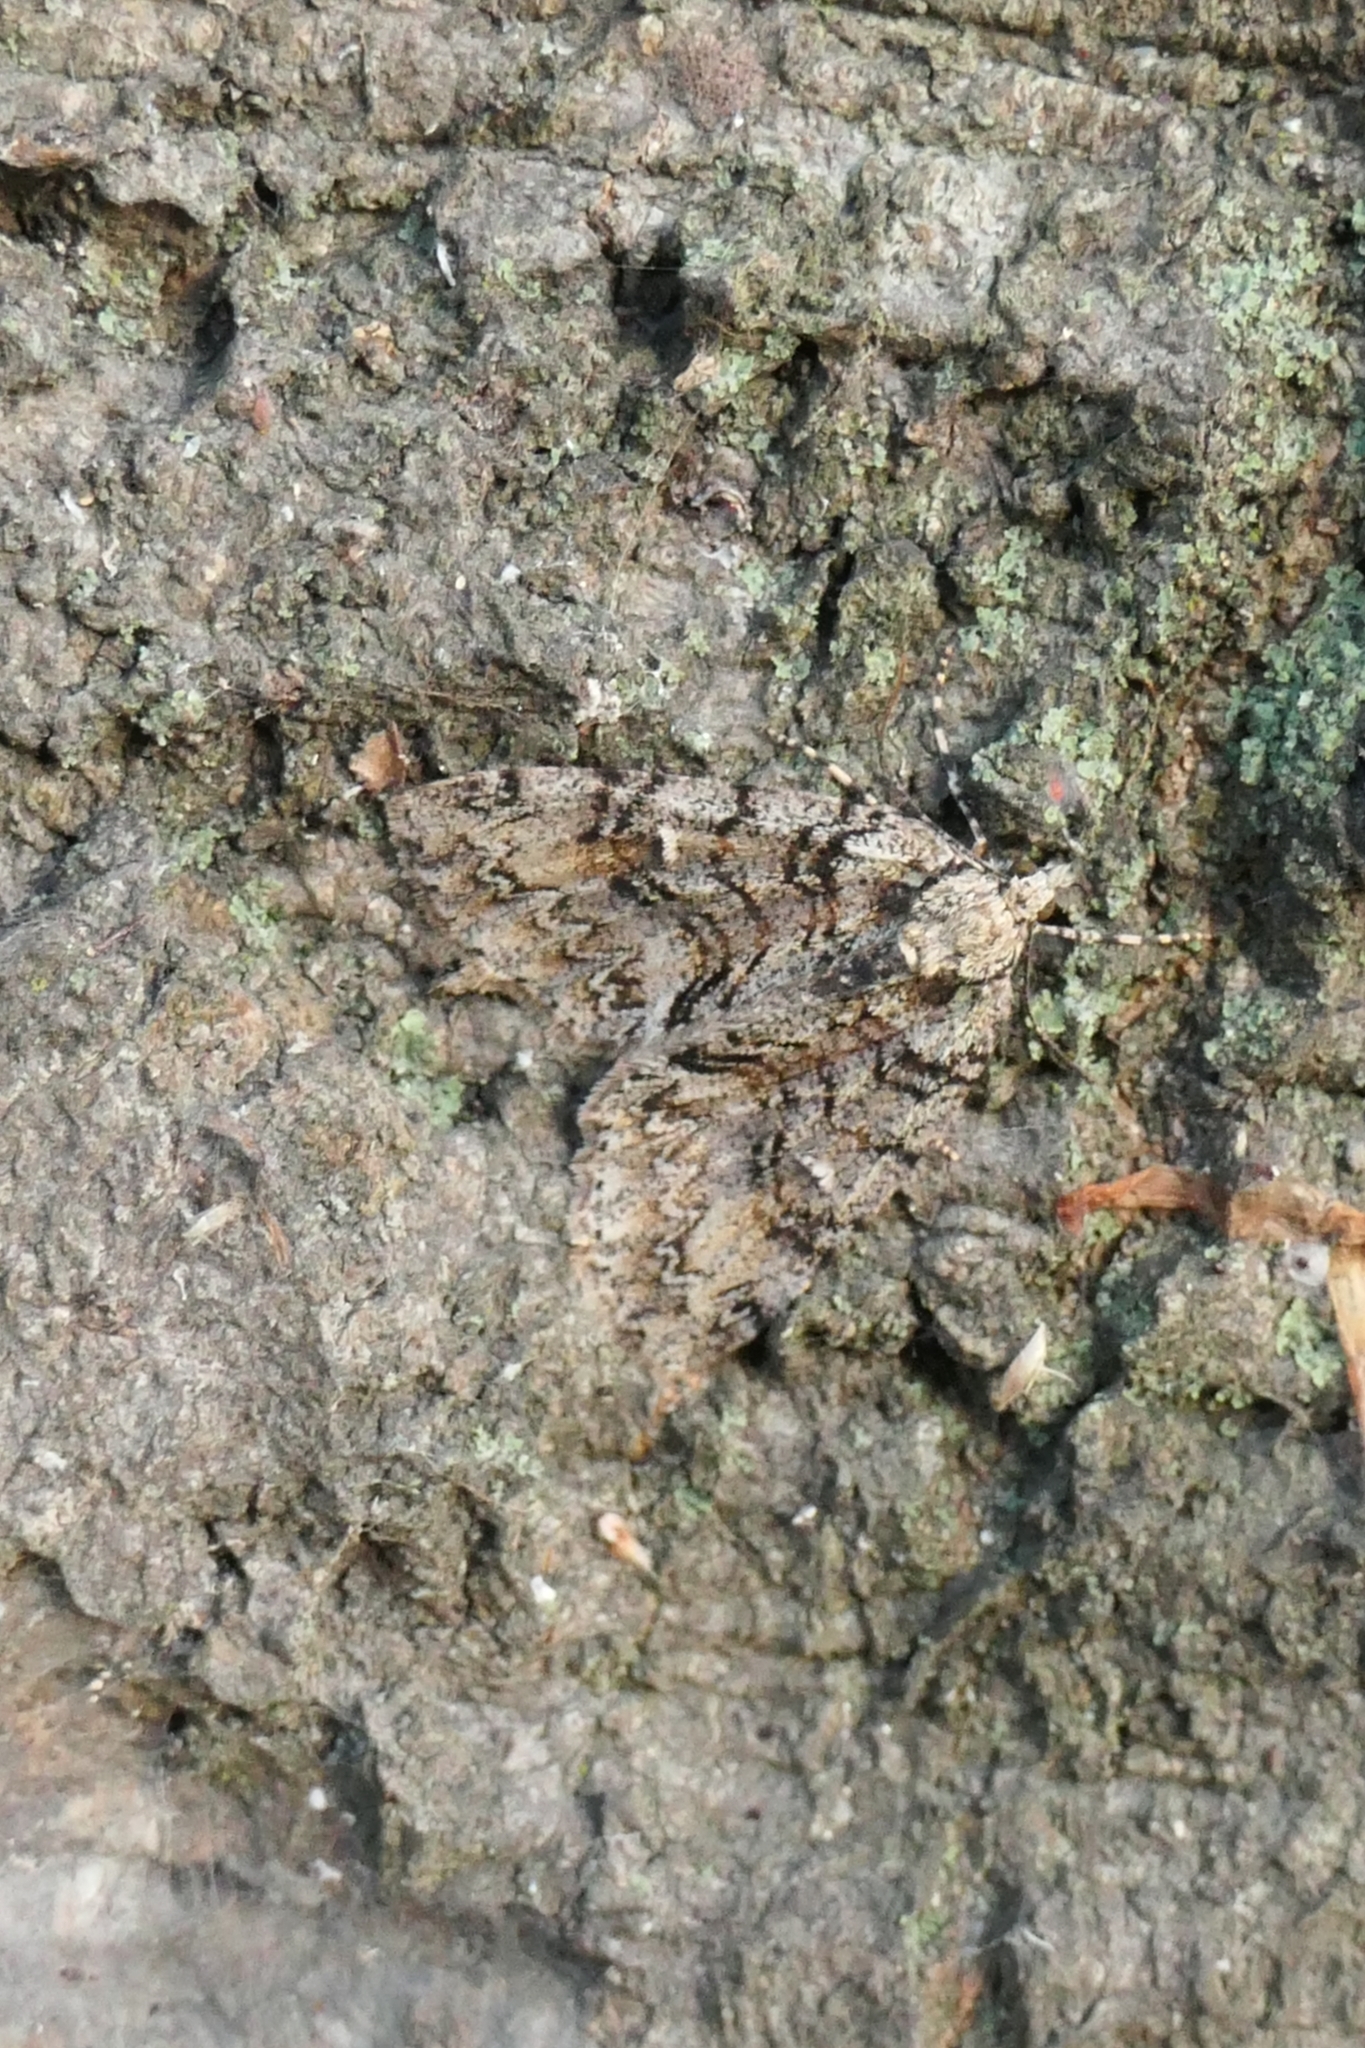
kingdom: Animalia
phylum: Arthropoda
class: Insecta
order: Lepidoptera
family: Geometridae
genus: Pseudocoremia
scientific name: Pseudocoremia suavis
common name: Common forest looper
